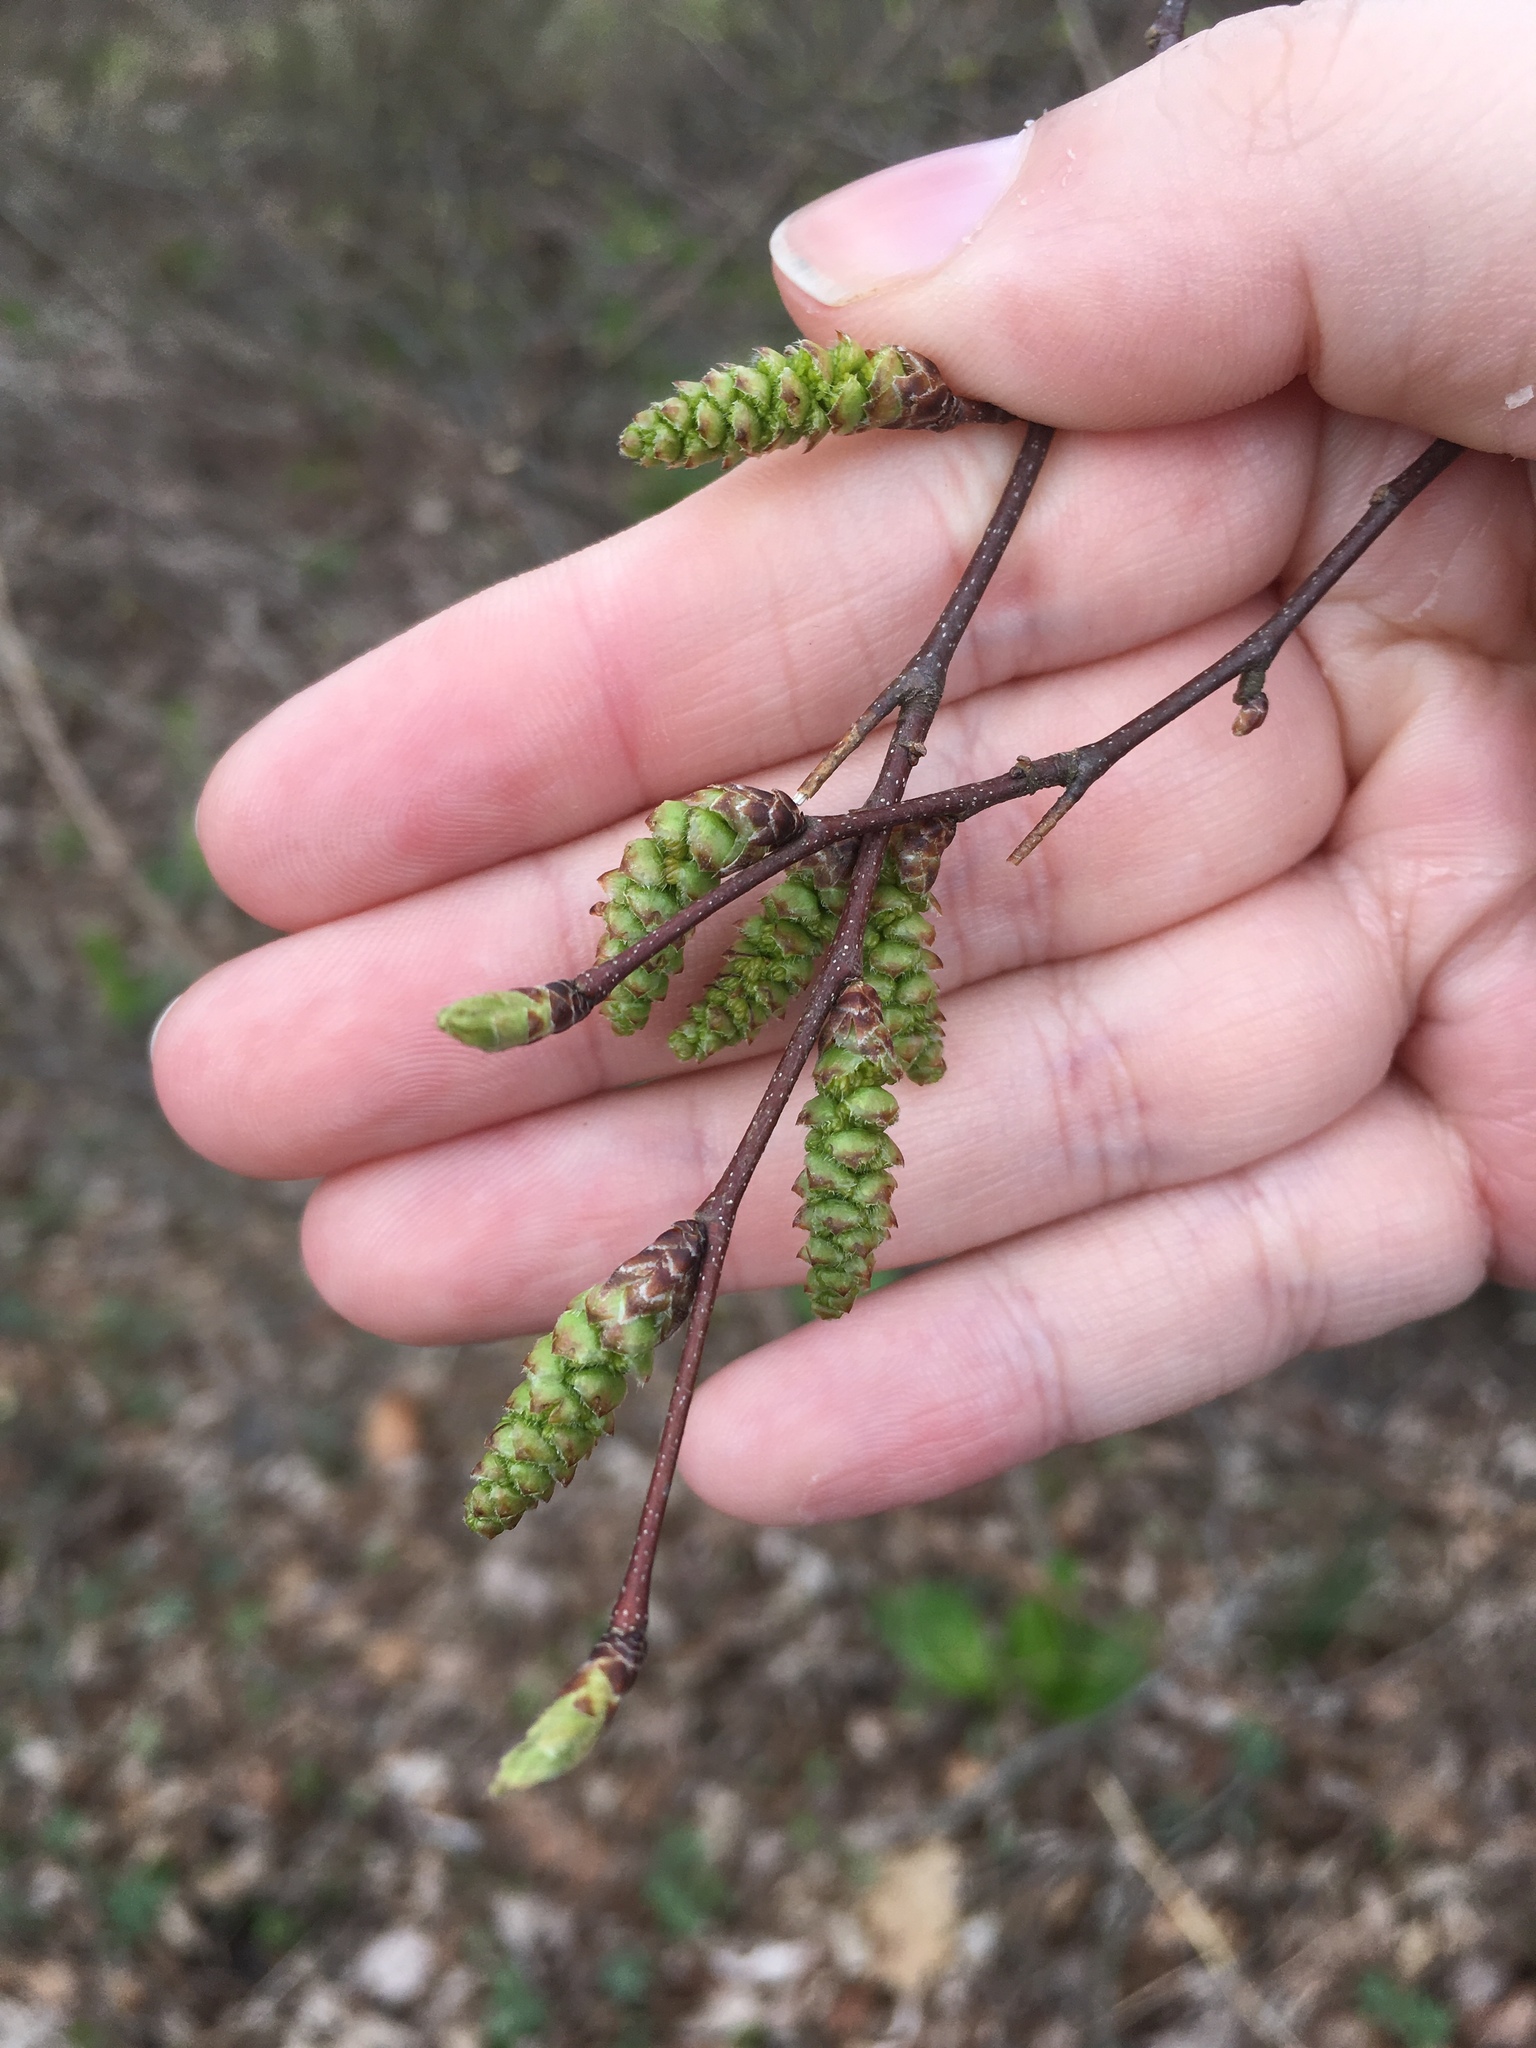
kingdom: Plantae
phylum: Tracheophyta
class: Magnoliopsida
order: Fagales
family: Betulaceae
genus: Carpinus
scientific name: Carpinus caroliniana
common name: American hornbeam
